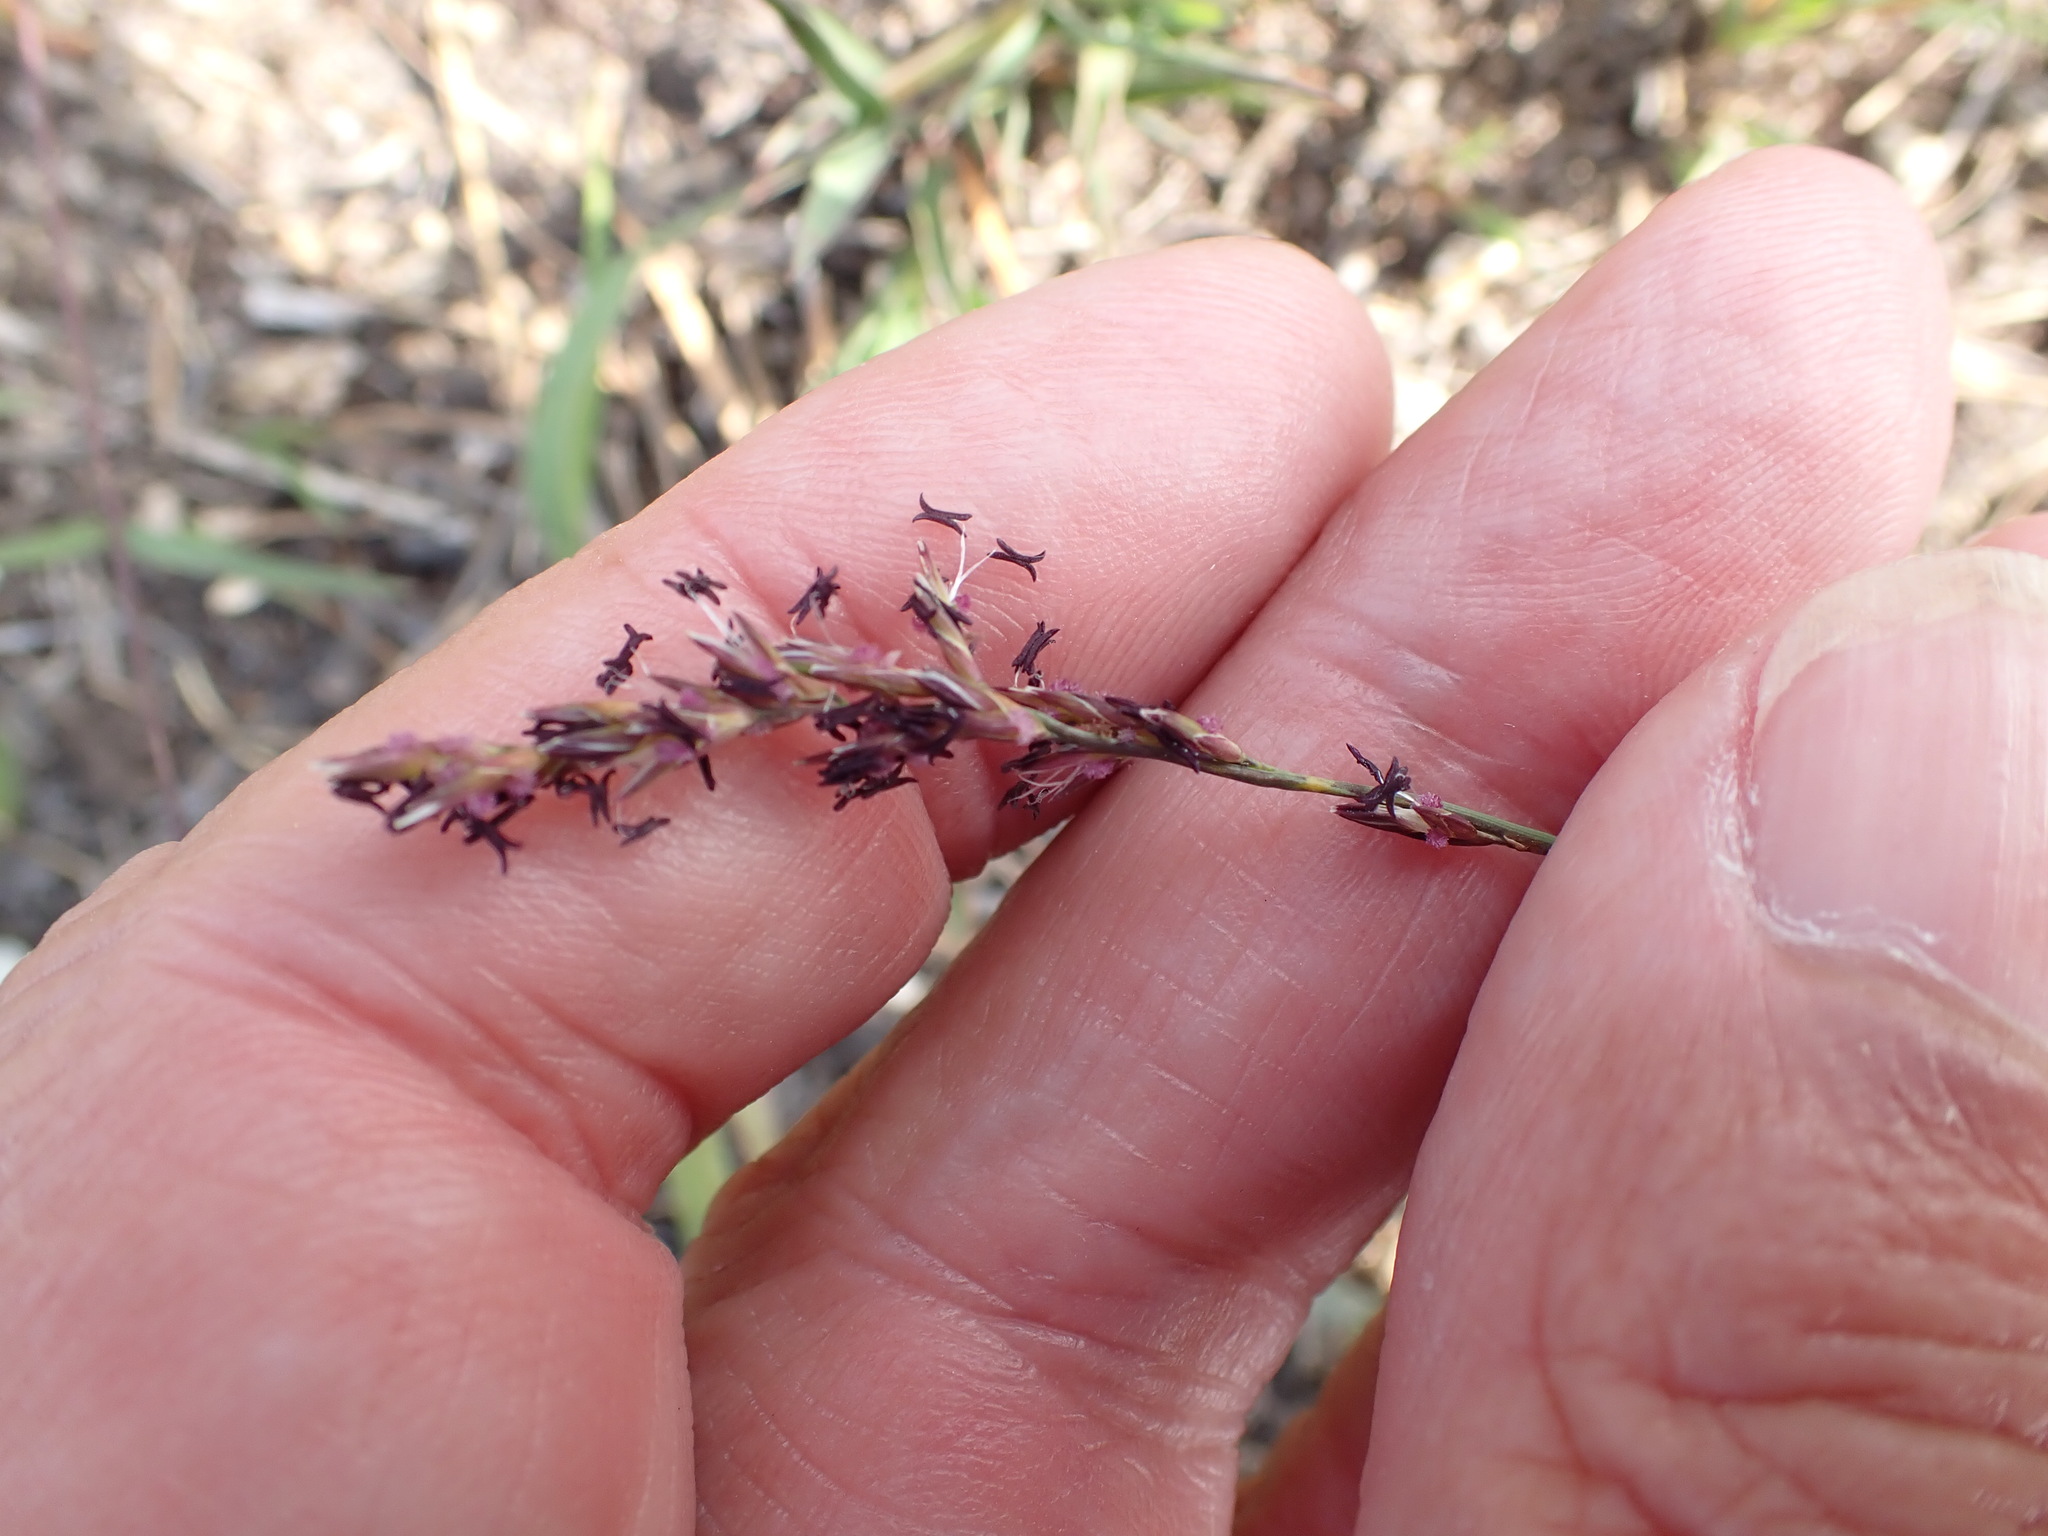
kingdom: Plantae
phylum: Tracheophyta
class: Liliopsida
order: Poales
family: Poaceae
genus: Molinia
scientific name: Molinia caerulea
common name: Purple moor-grass
